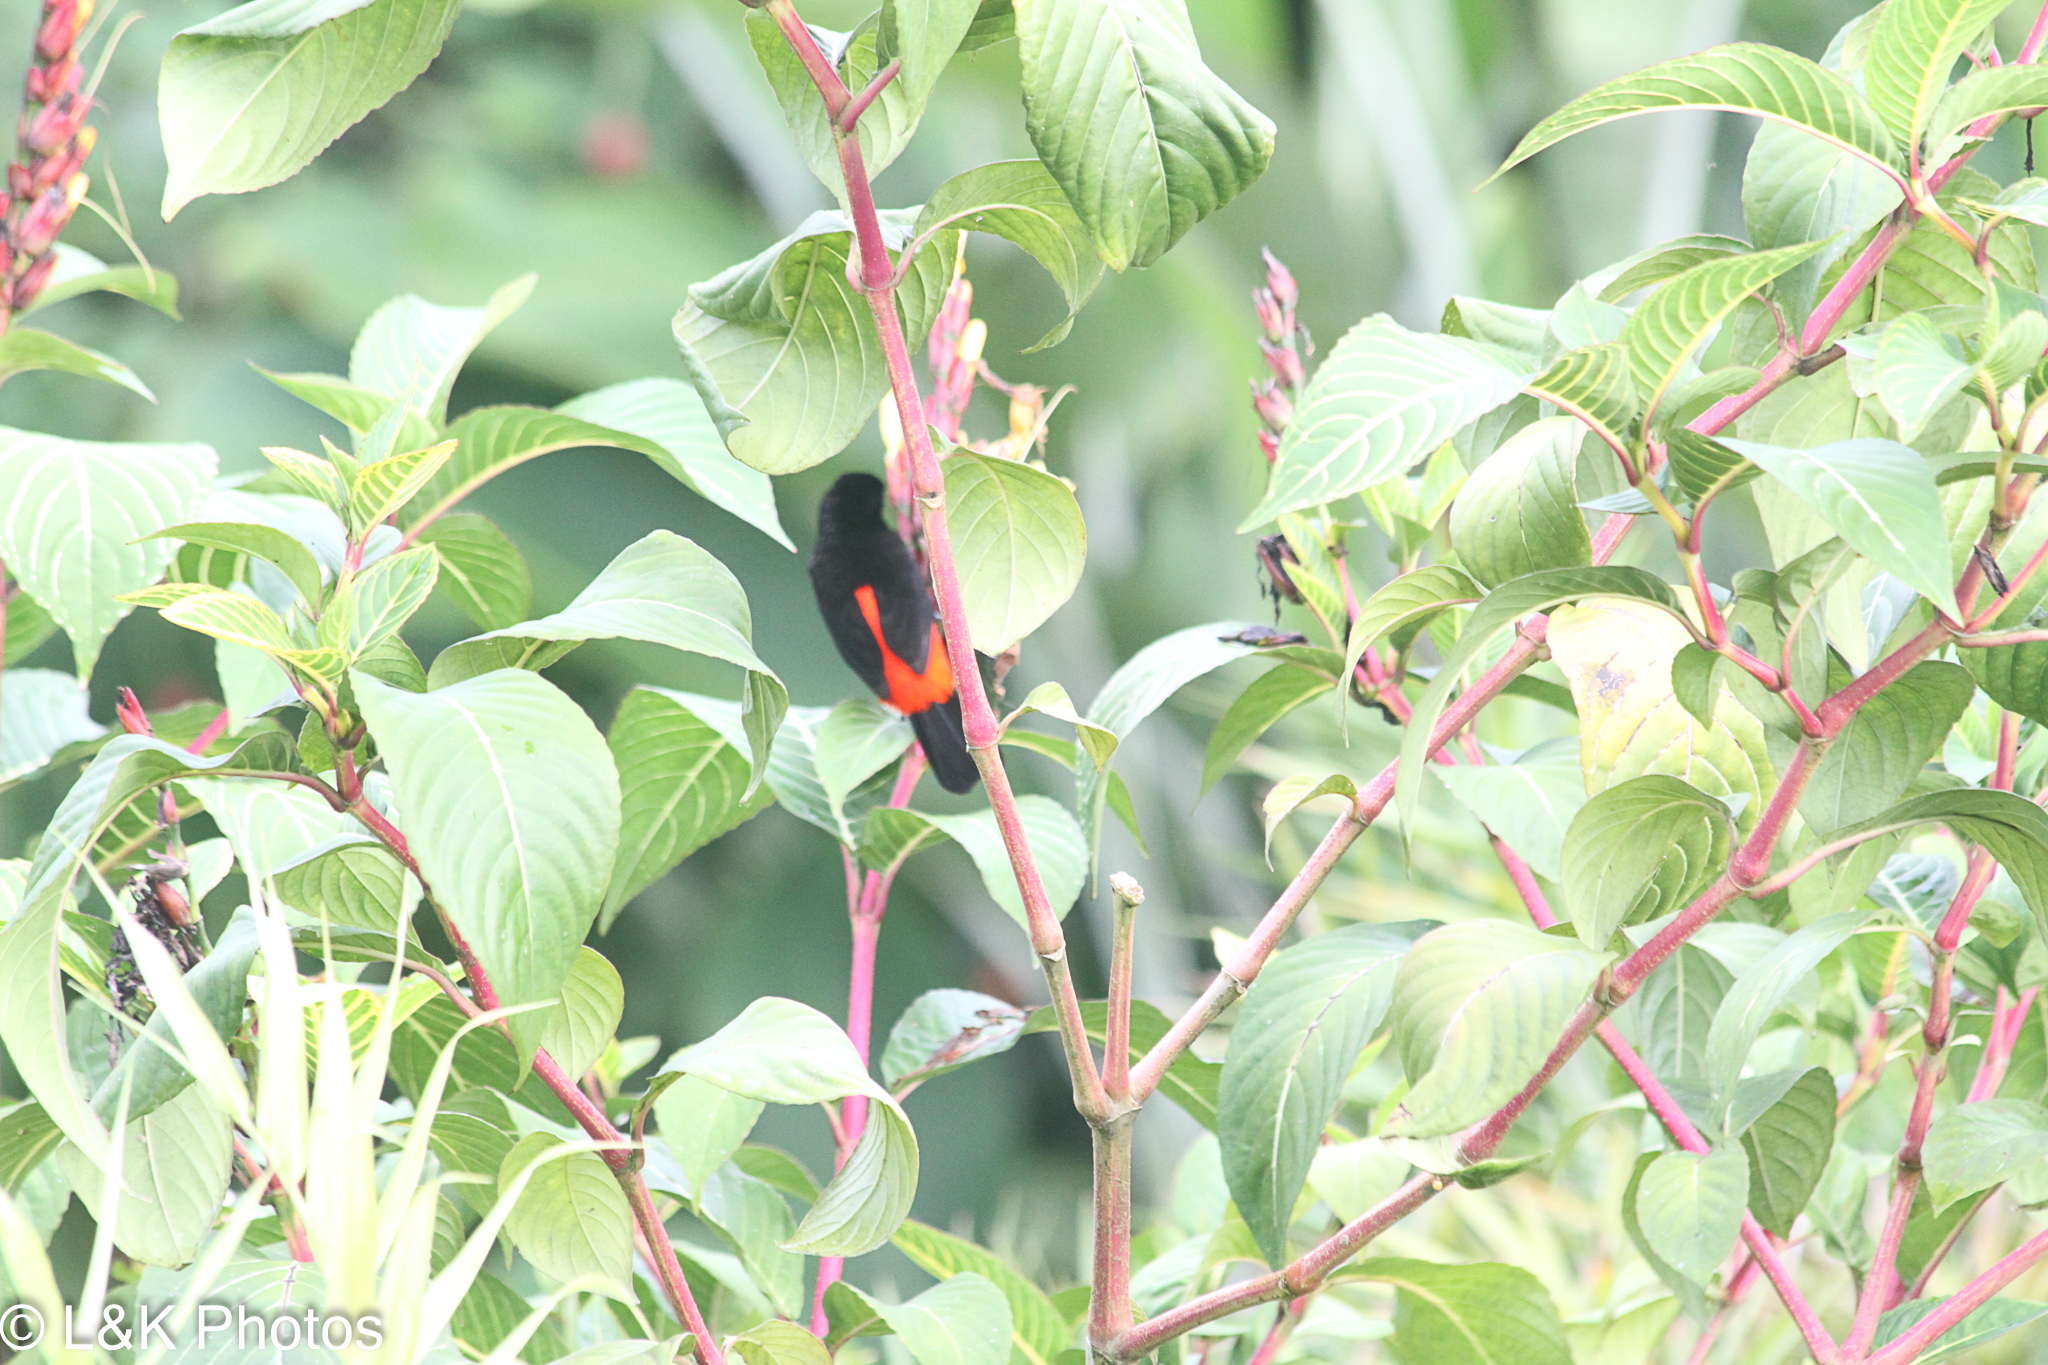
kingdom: Animalia
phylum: Chordata
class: Aves
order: Passeriformes
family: Thraupidae
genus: Ramphocelus
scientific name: Ramphocelus passerinii
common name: Passerini's tanager
